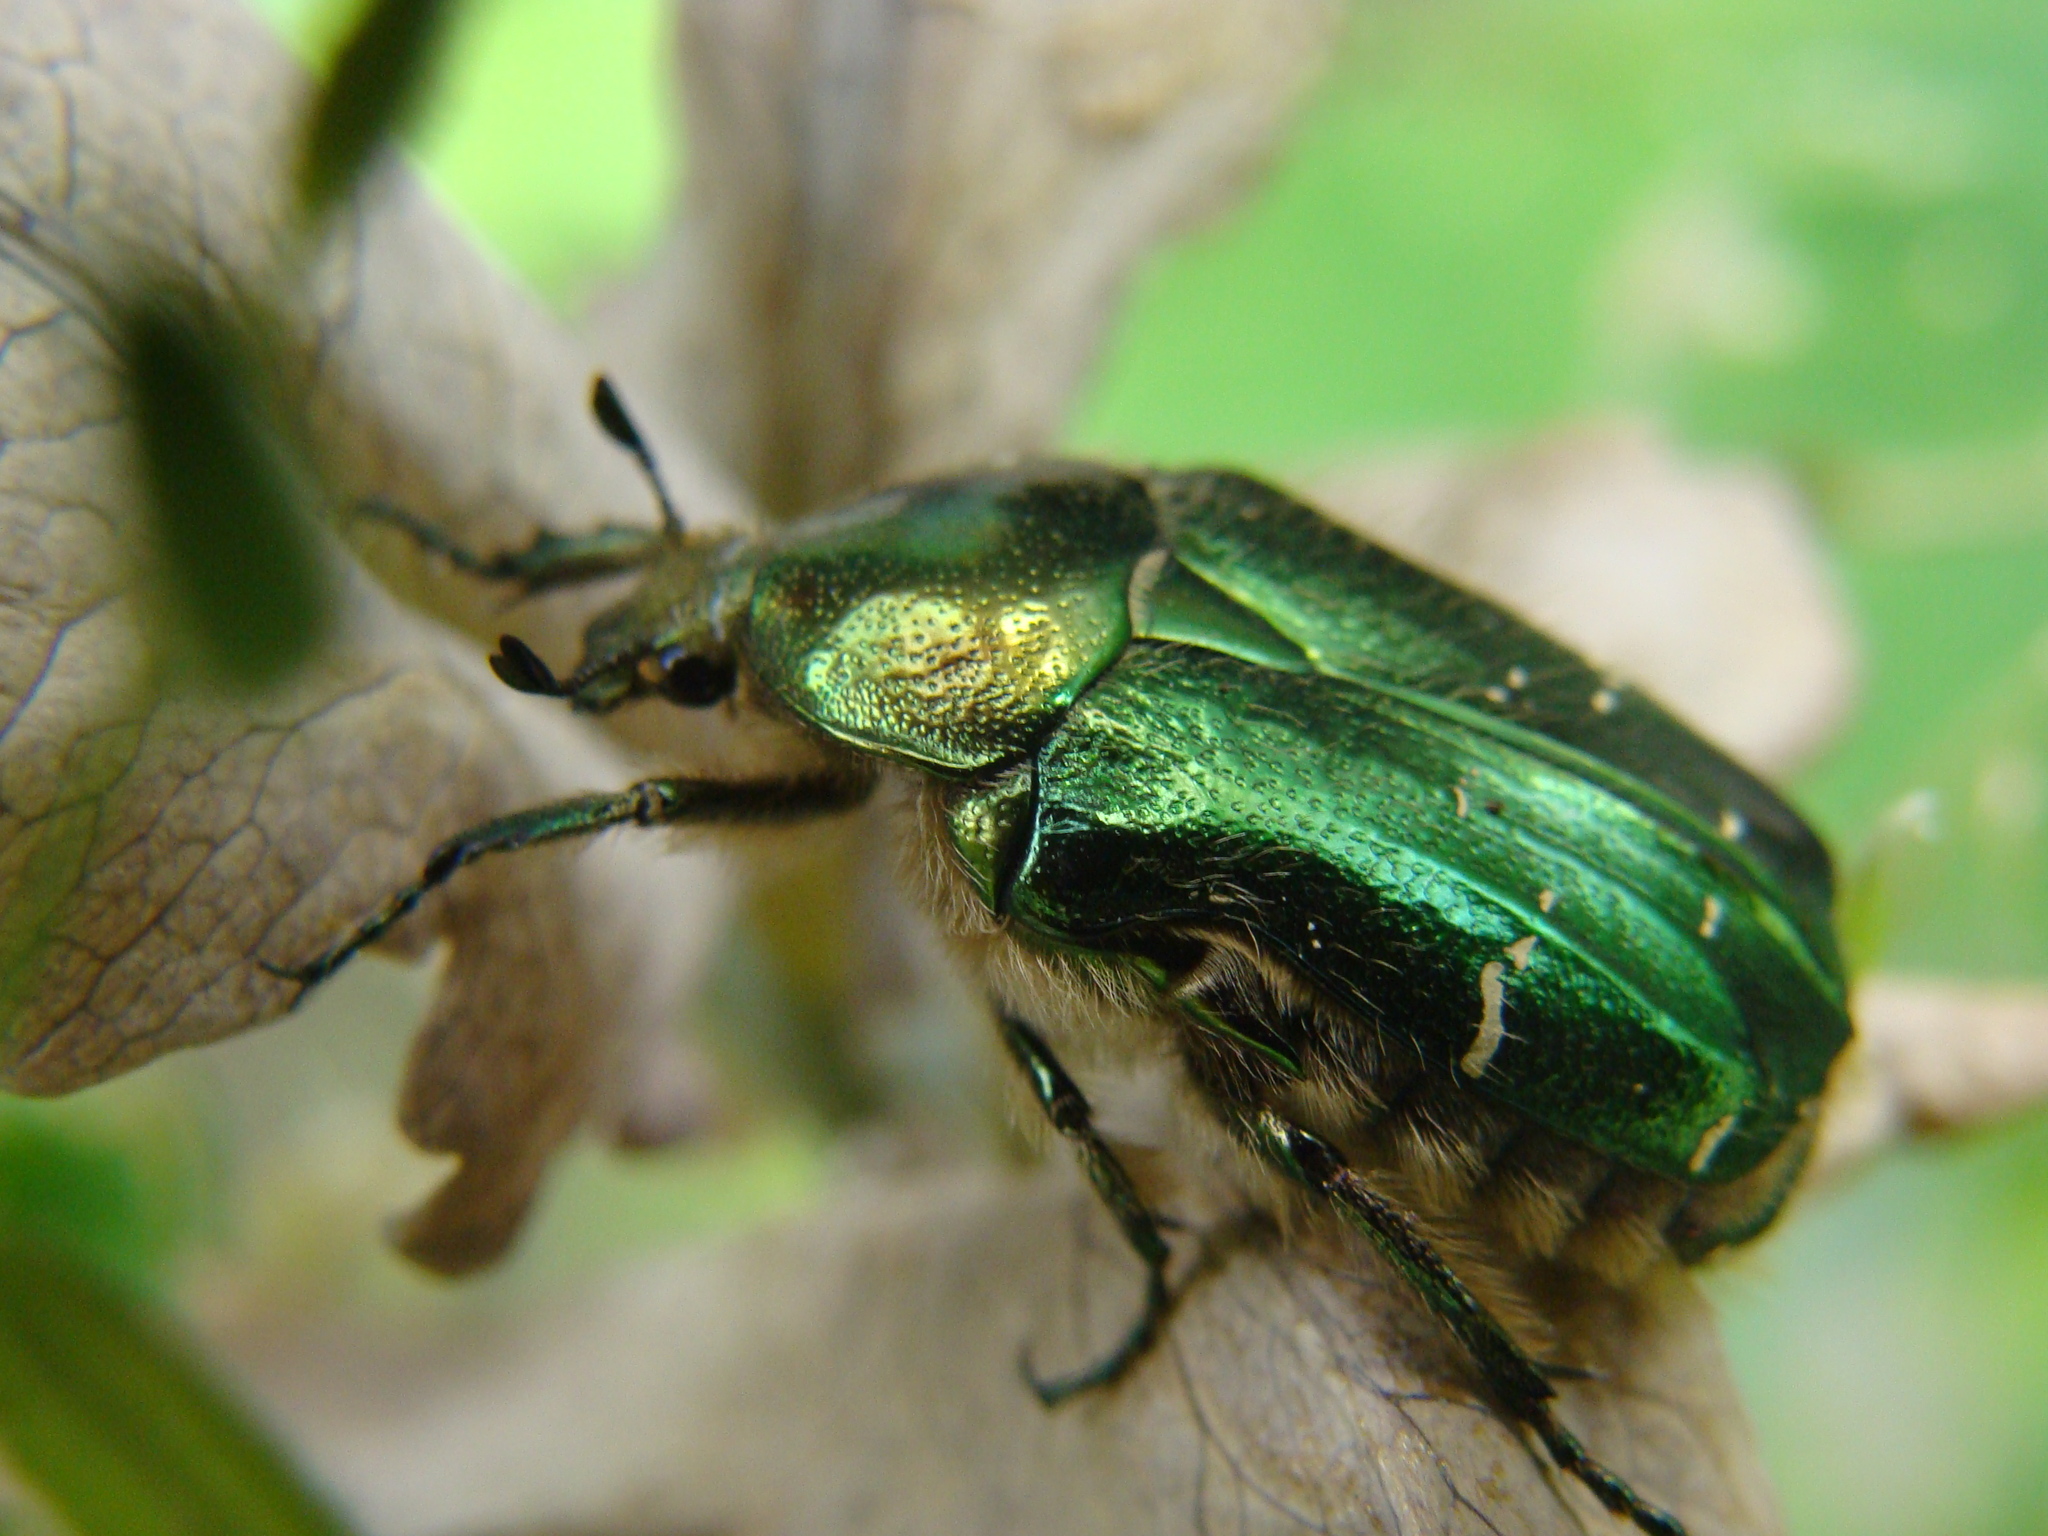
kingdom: Animalia
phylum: Arthropoda
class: Insecta
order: Coleoptera
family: Scarabaeidae
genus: Cetonia
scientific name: Cetonia aurata
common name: Rose chafer
